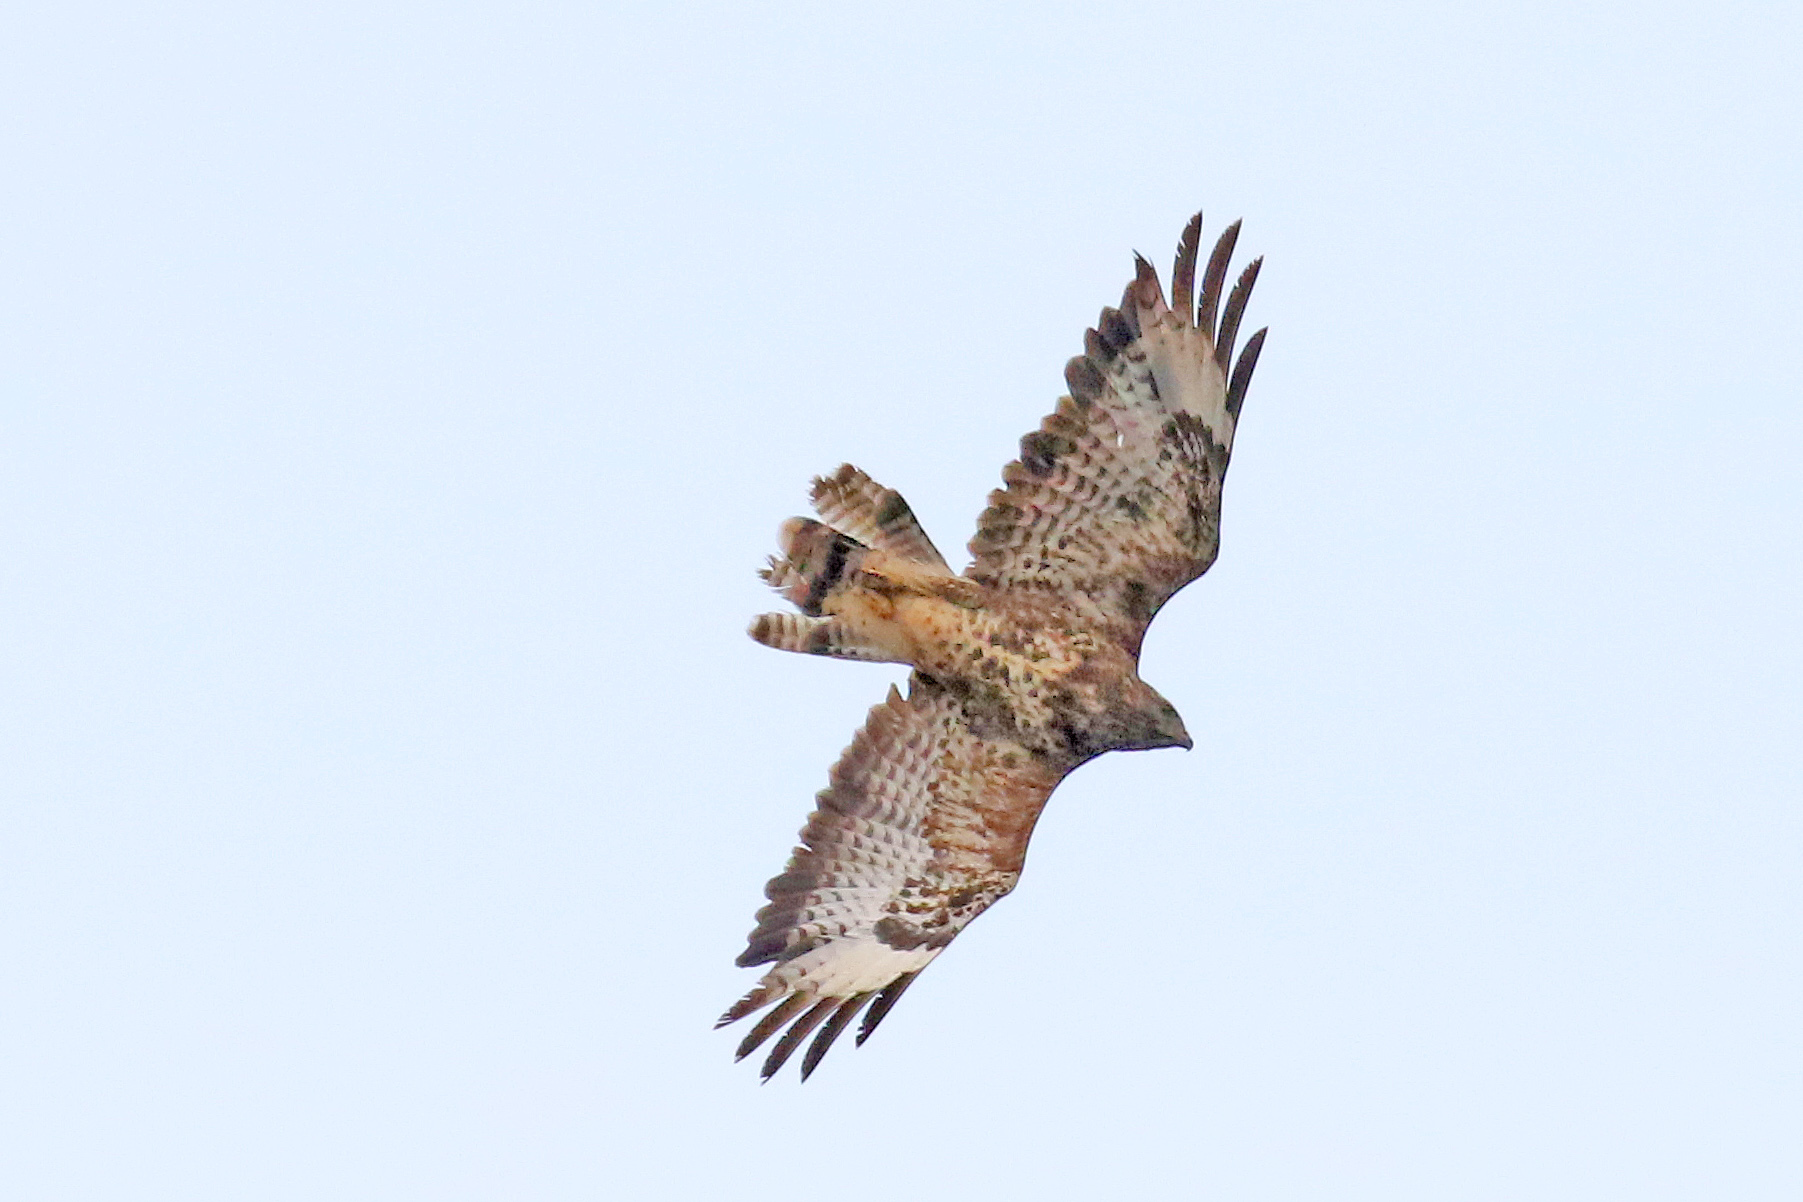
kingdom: Animalia
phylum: Chordata
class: Aves
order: Accipitriformes
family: Accipitridae
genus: Buteo
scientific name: Buteo buteo
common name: Common buzzard
